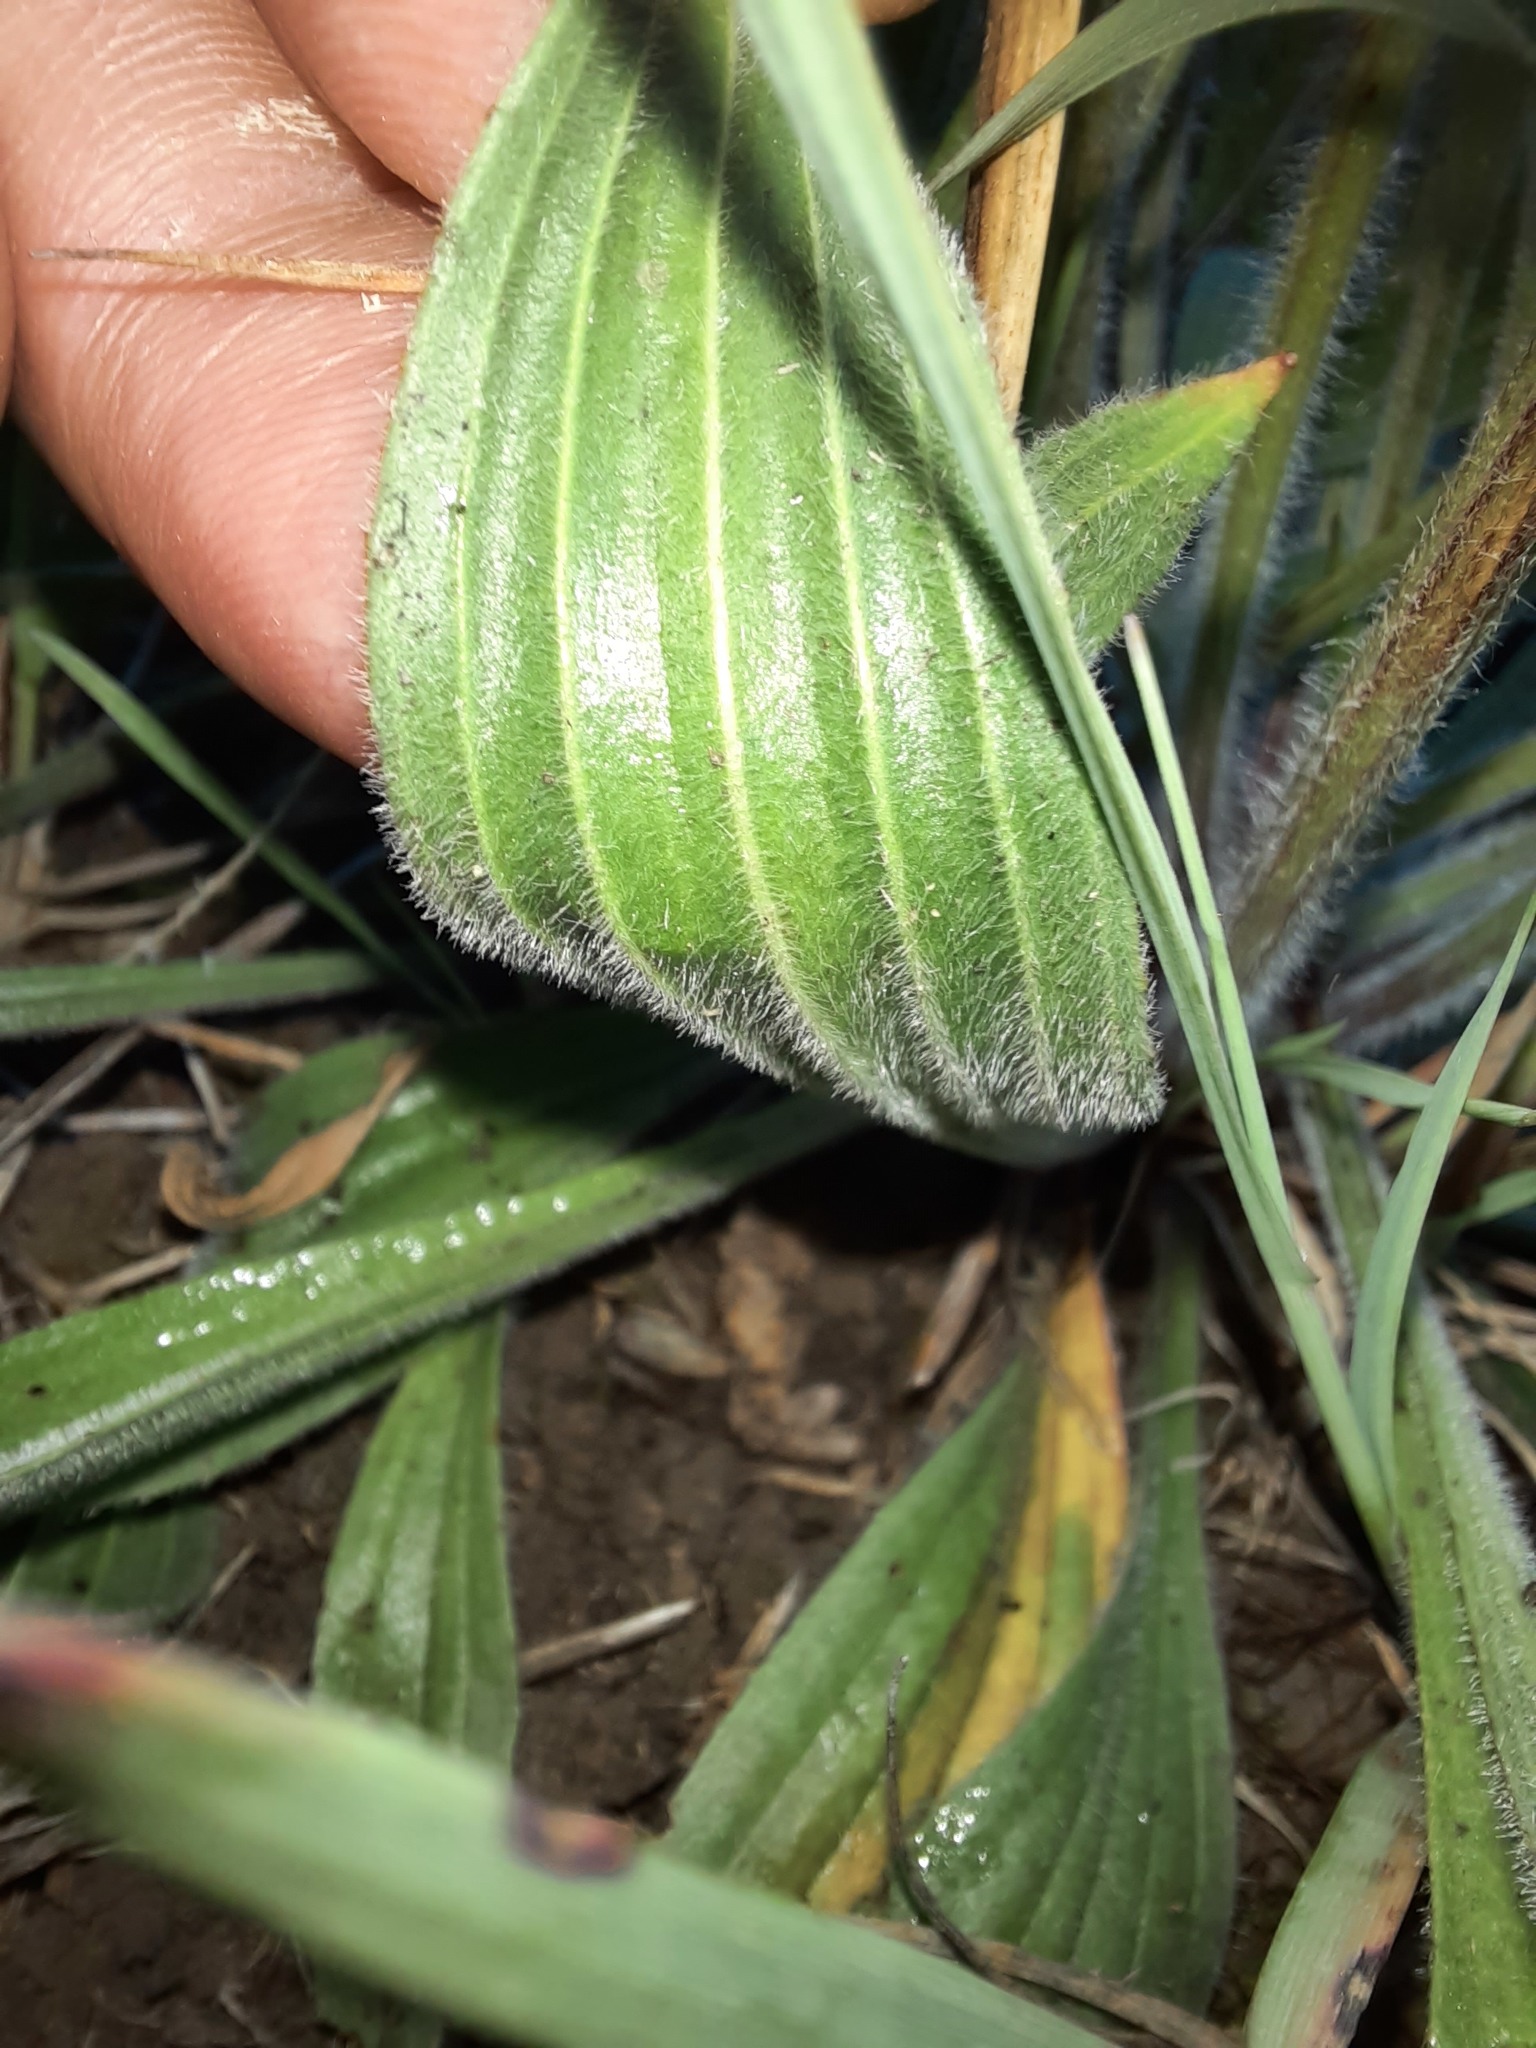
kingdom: Plantae
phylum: Tracheophyta
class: Magnoliopsida
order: Lamiales
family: Plantaginaceae
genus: Plantago
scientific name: Plantago lanceolata
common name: Ribwort plantain
